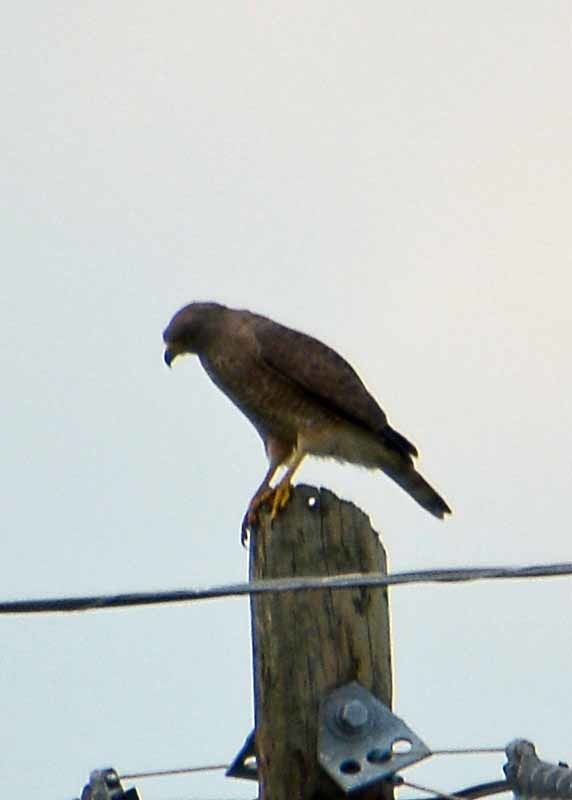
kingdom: Animalia
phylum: Chordata
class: Aves
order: Accipitriformes
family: Accipitridae
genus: Rupornis
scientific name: Rupornis magnirostris
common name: Roadside hawk
